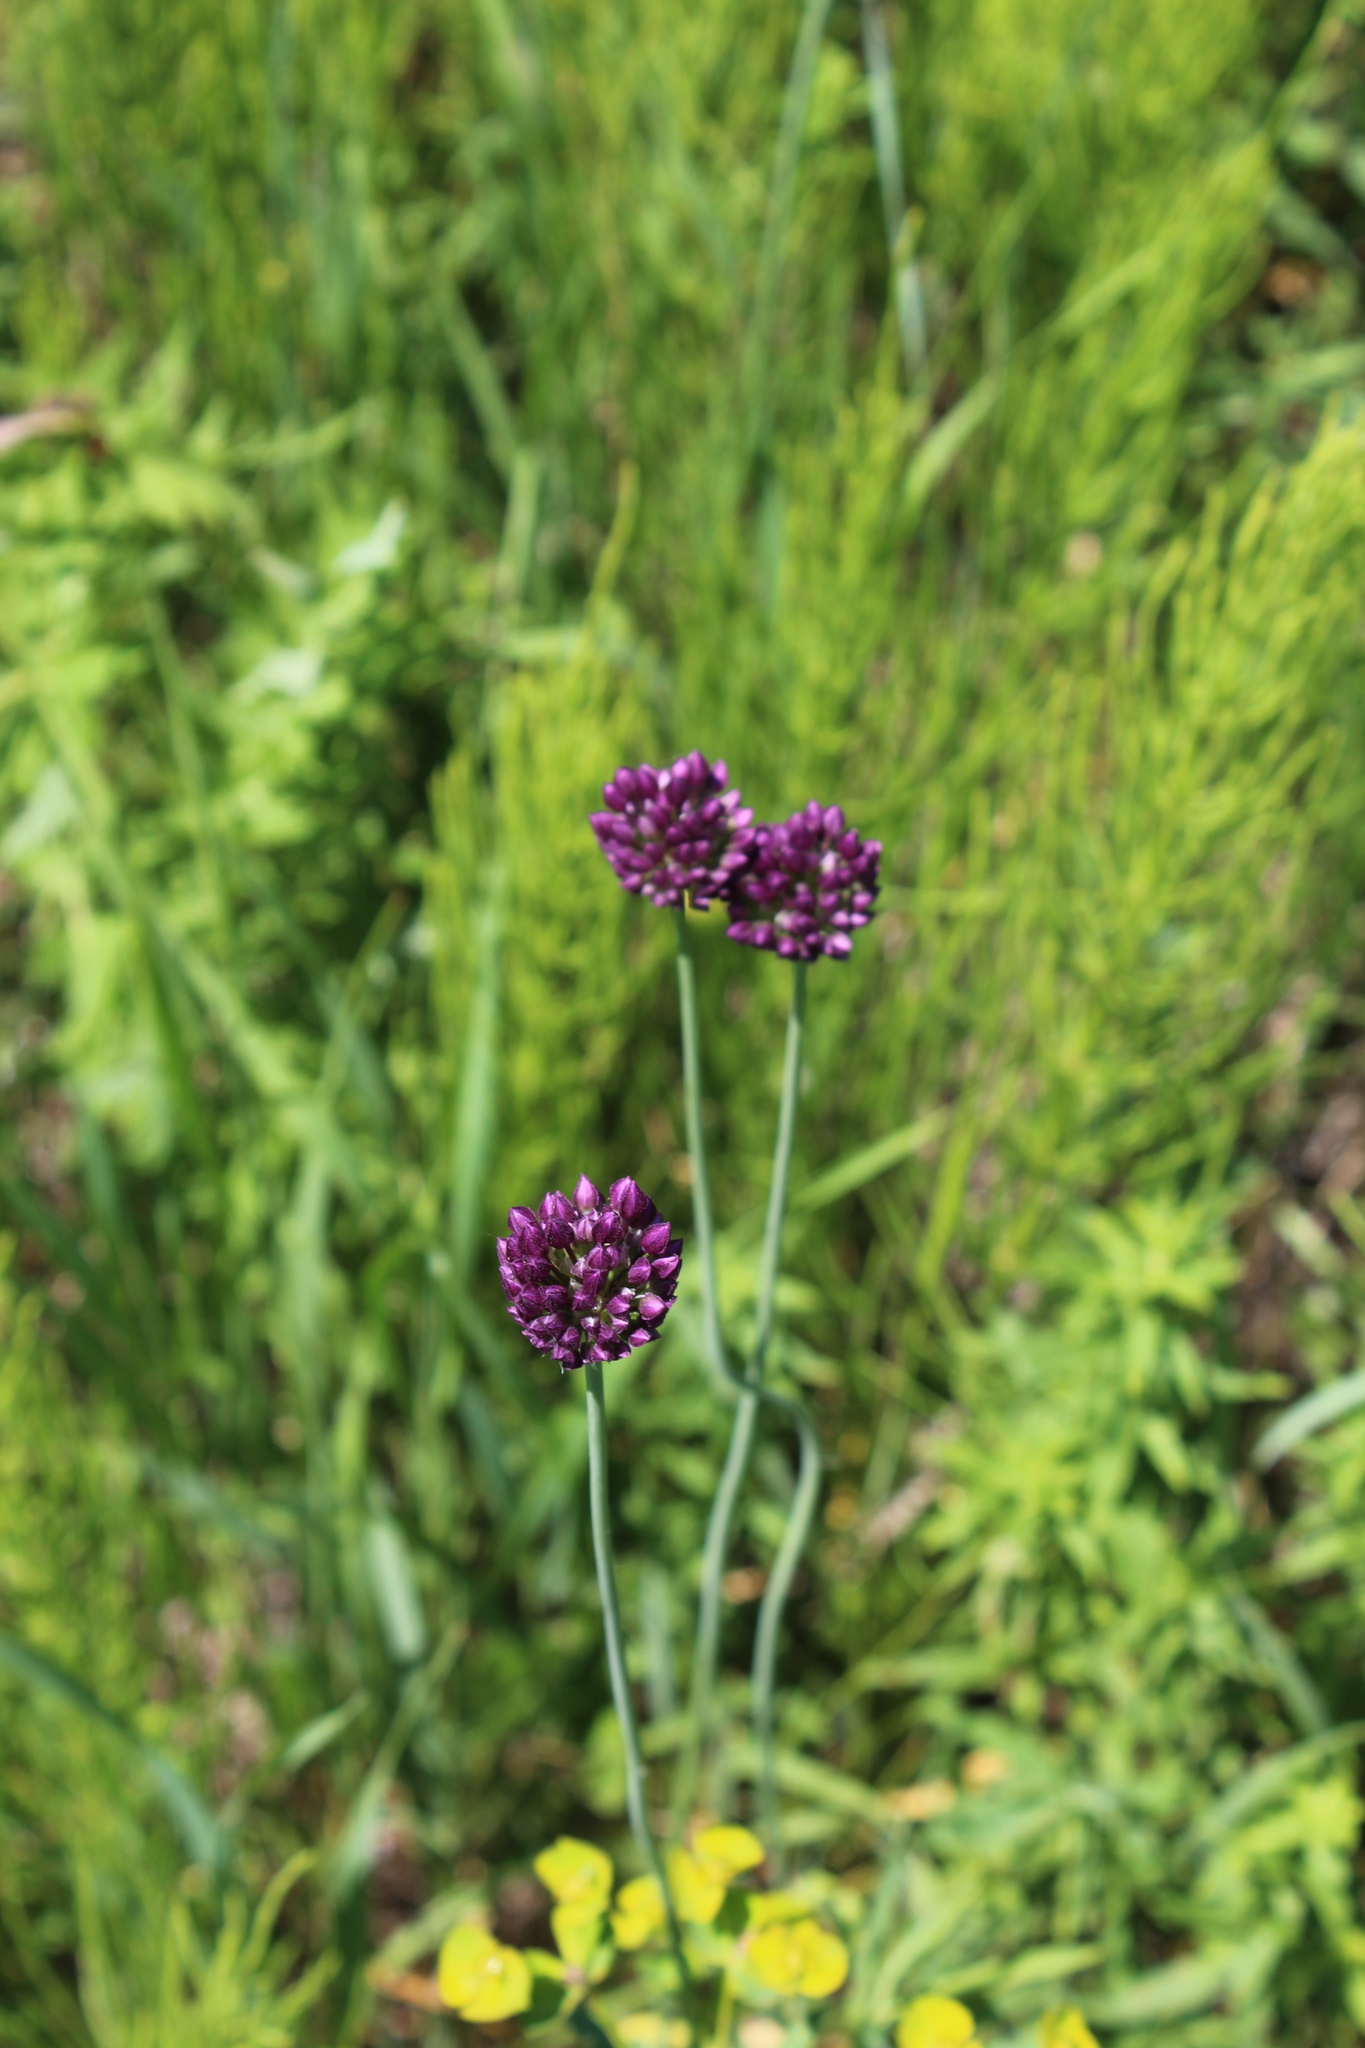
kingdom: Plantae
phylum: Tracheophyta
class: Liliopsida
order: Asparagales
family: Amaryllidaceae
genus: Allium
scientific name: Allium rotundum
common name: Sand leek
